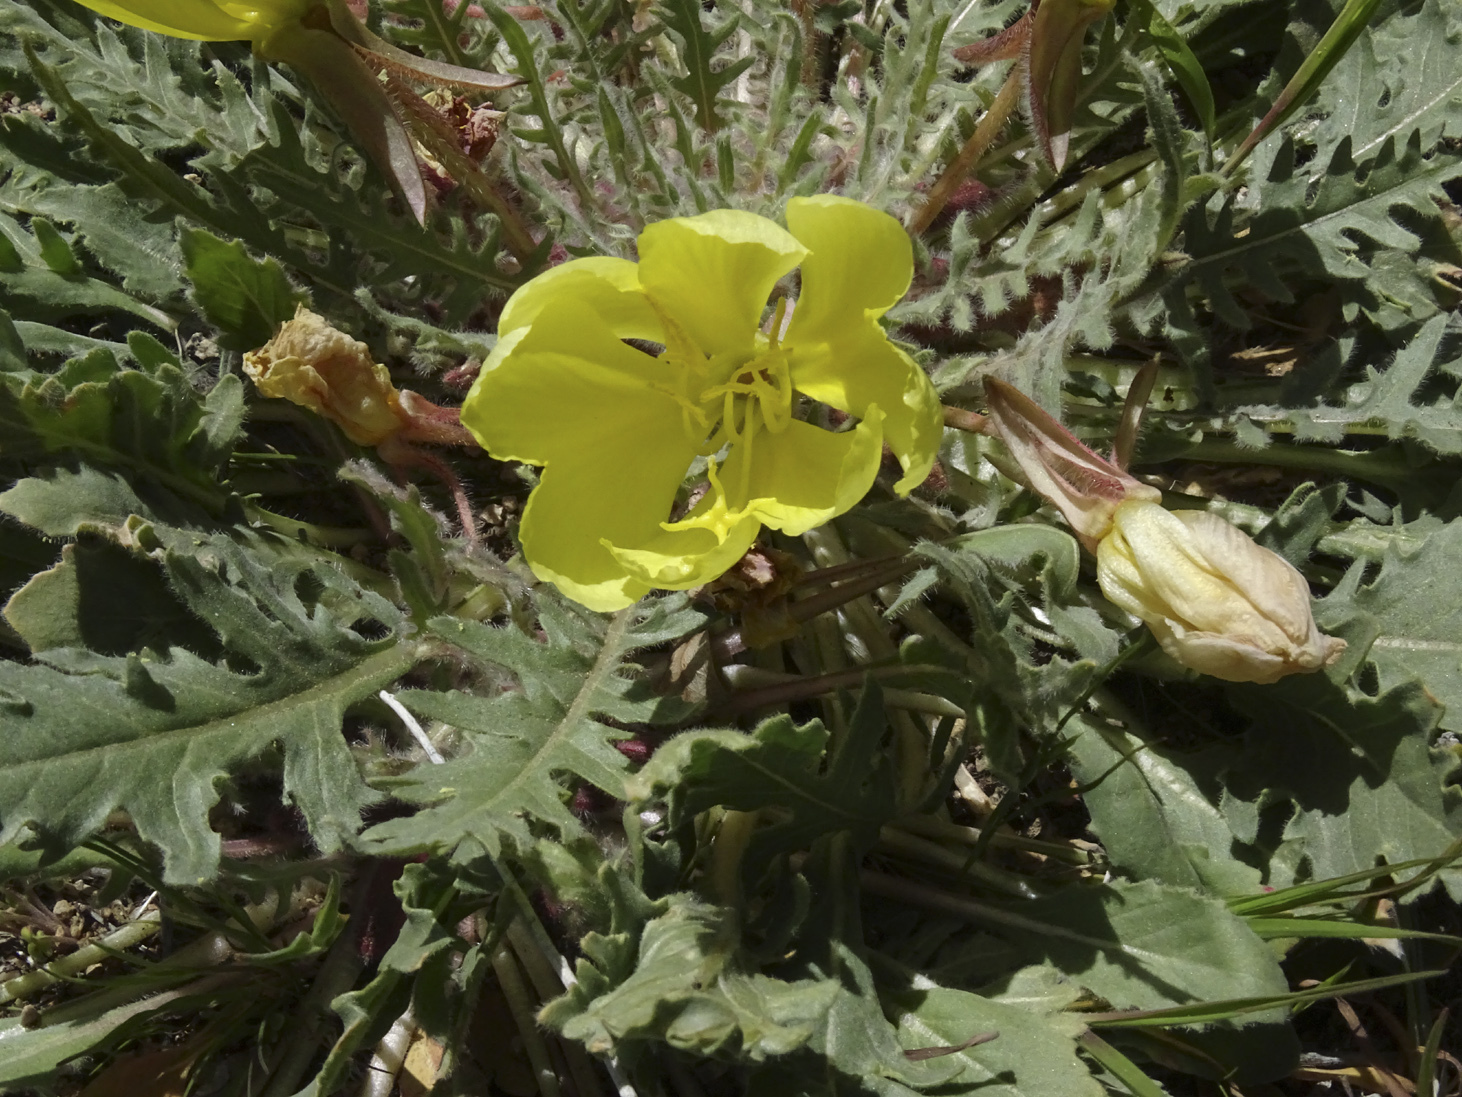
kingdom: Plantae
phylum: Tracheophyta
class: Magnoliopsida
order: Myrtales
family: Onagraceae
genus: Oenothera
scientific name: Oenothera primiveris
